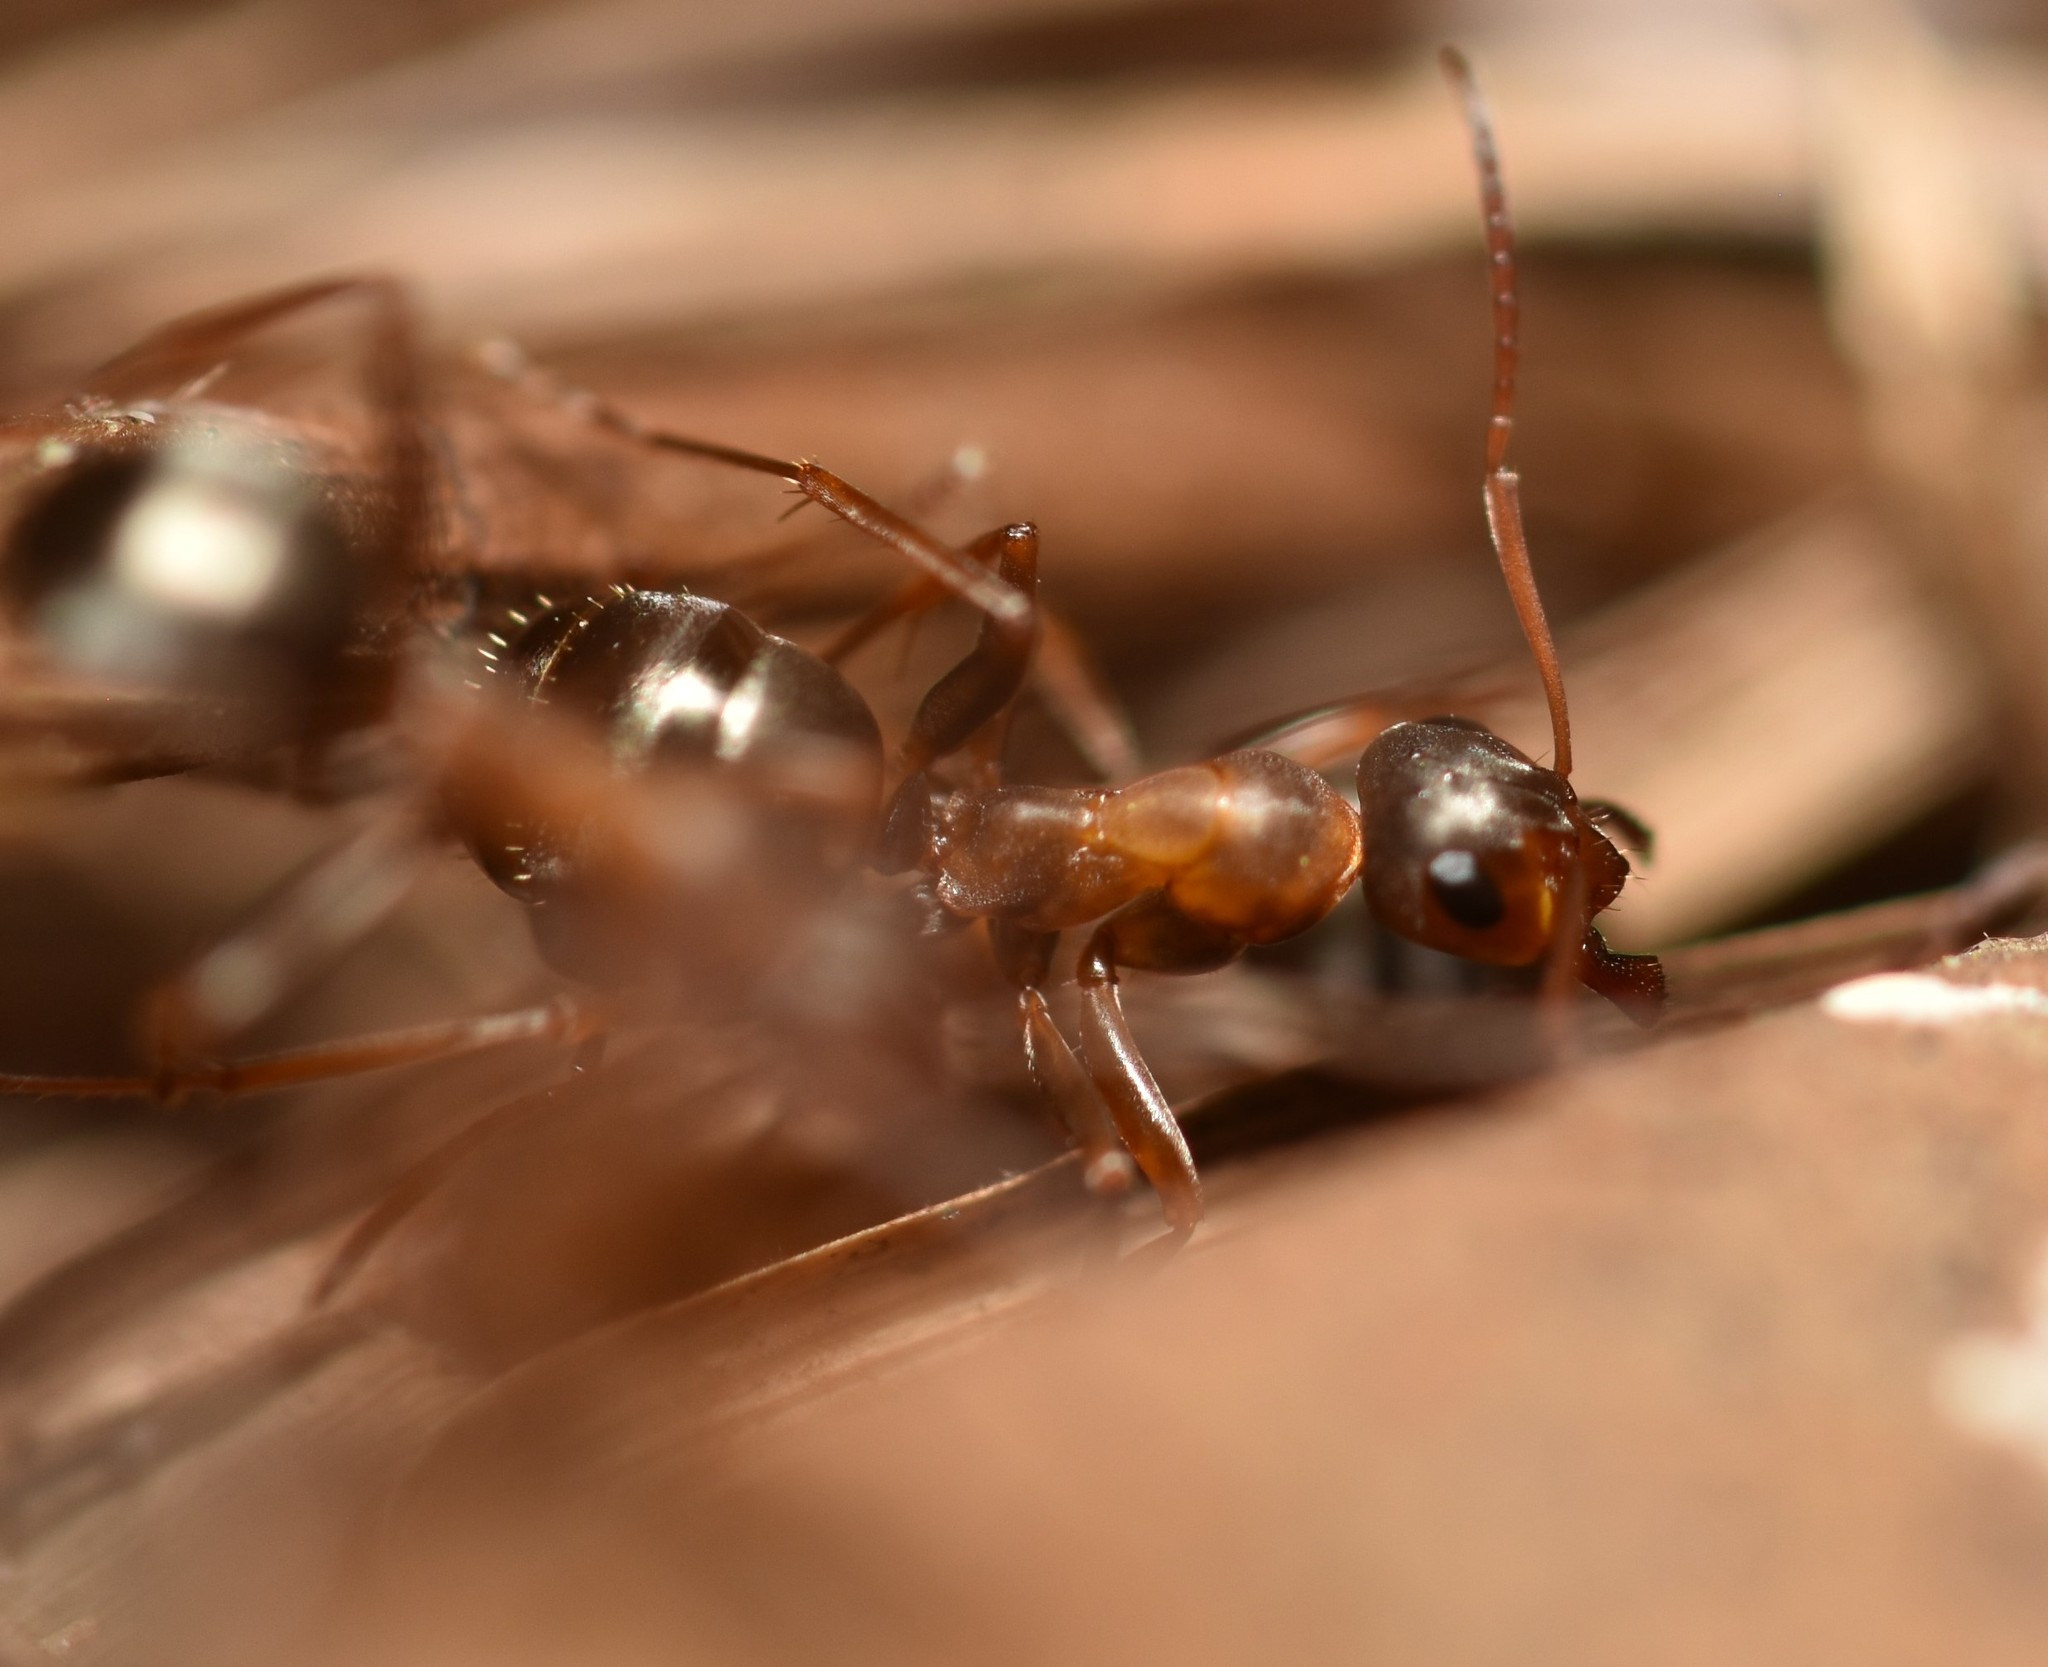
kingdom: Animalia
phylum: Arthropoda
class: Insecta
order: Hymenoptera
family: Formicidae
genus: Formica
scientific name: Formica gnava
